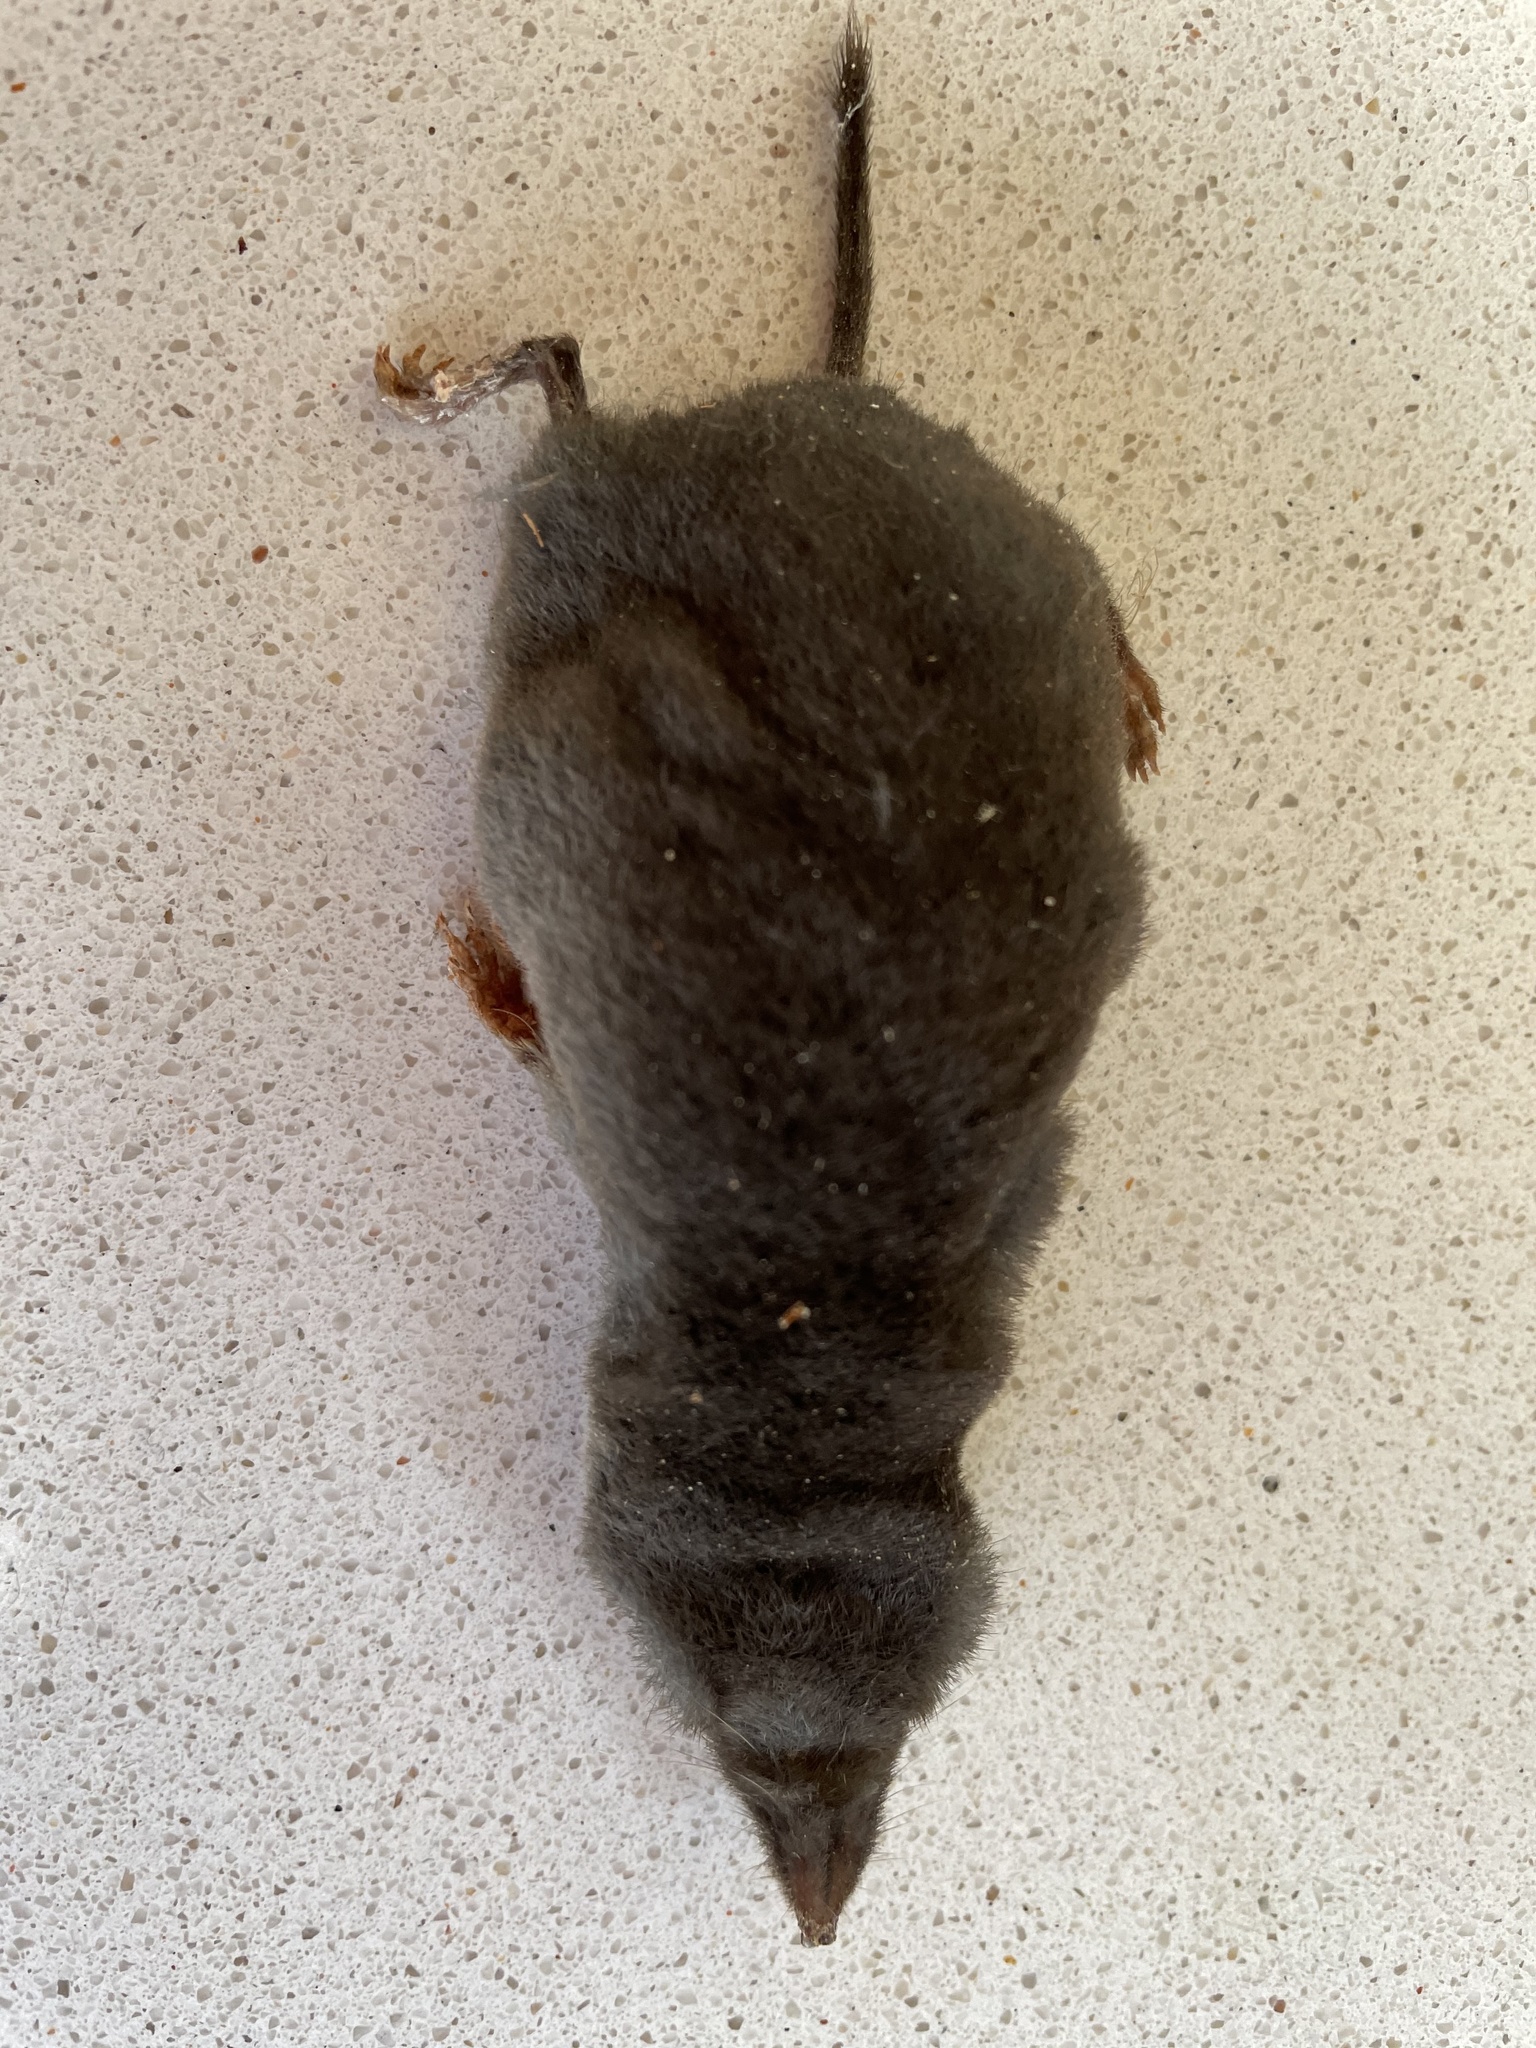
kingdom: Animalia
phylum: Chordata
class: Mammalia
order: Soricomorpha
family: Soricidae
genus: Blarina
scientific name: Blarina brevicauda
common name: Northern short-tailed shrew
